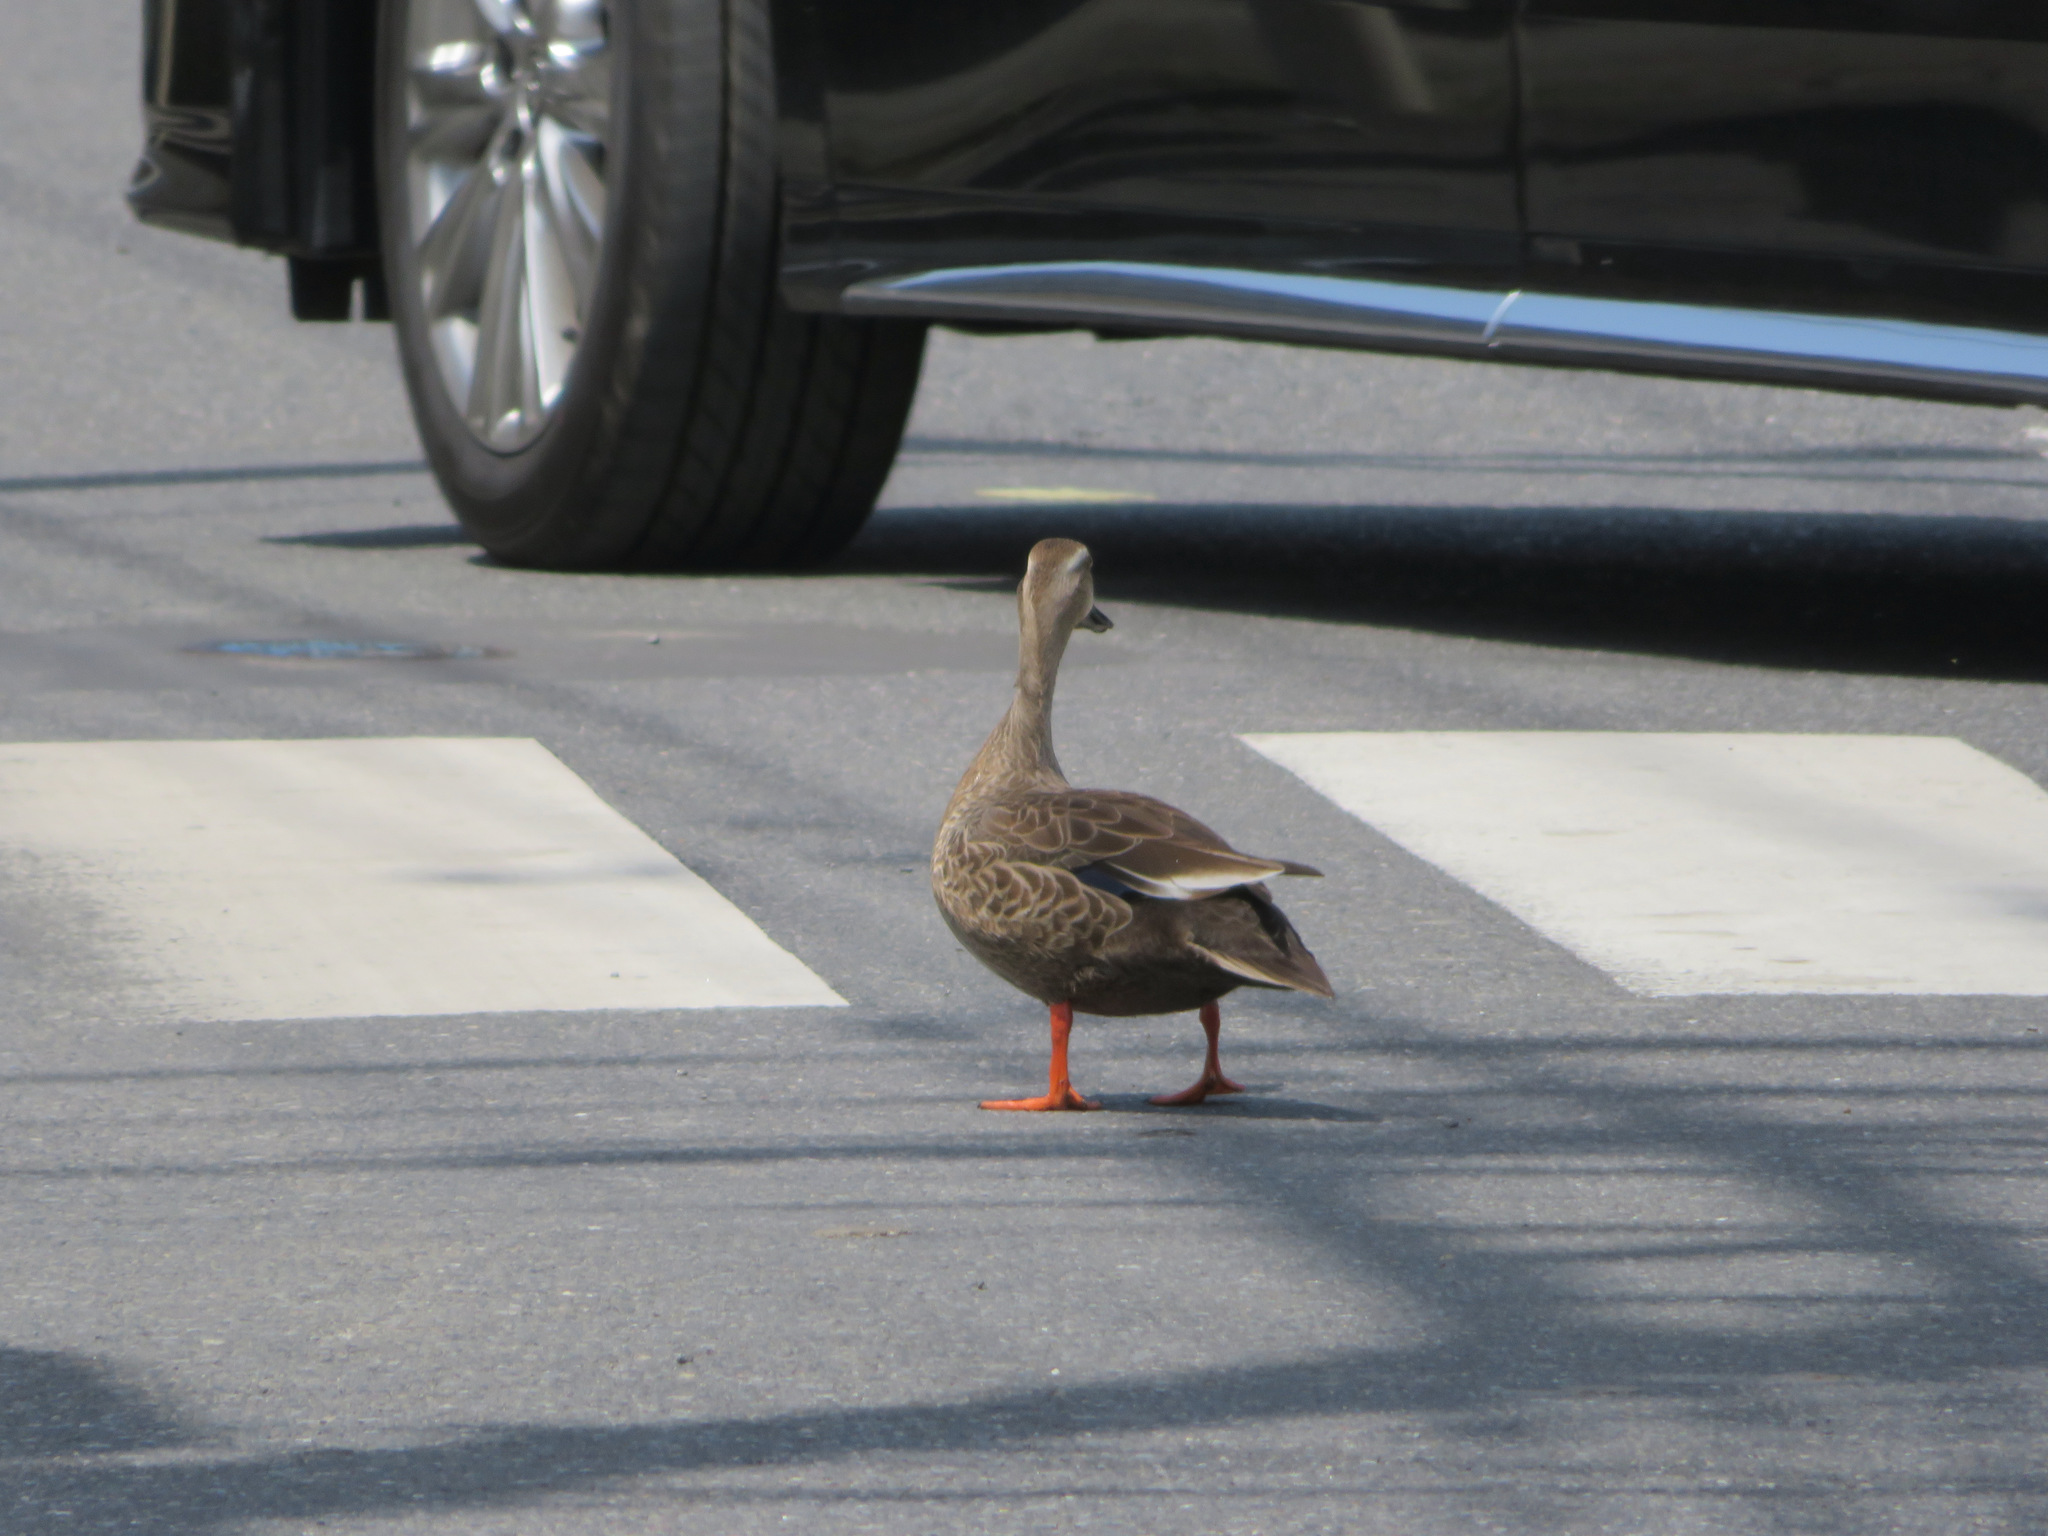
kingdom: Animalia
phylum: Chordata
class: Aves
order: Anseriformes
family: Anatidae
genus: Anas
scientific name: Anas zonorhyncha
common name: Eastern spot-billed duck
